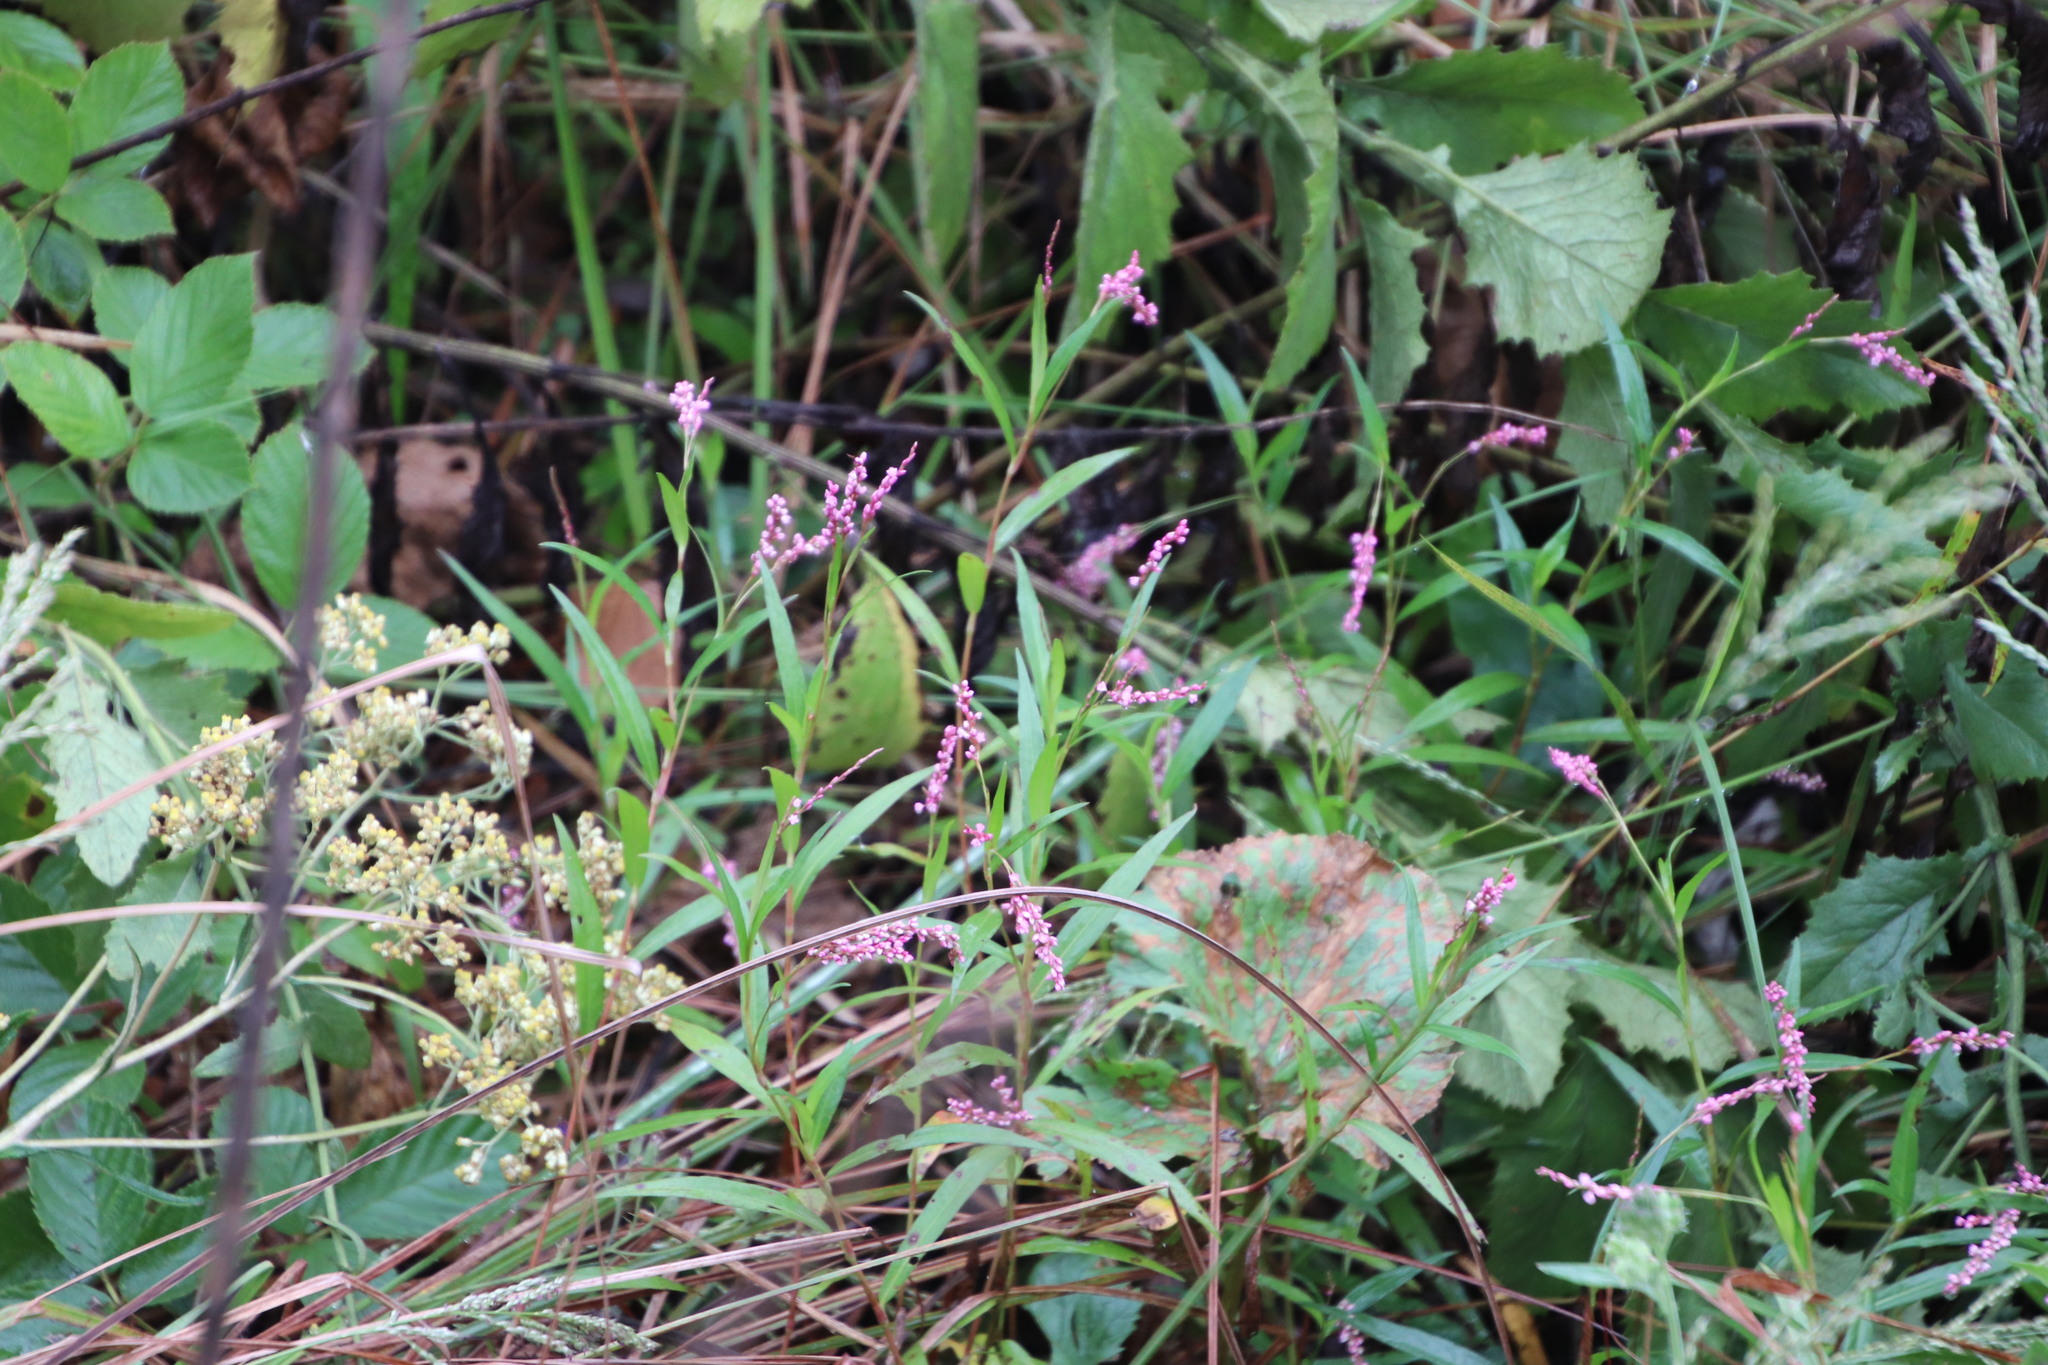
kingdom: Plantae
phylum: Tracheophyta
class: Magnoliopsida
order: Caryophyllales
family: Polygonaceae
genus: Persicaria
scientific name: Persicaria decipiens
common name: Willow-weed
